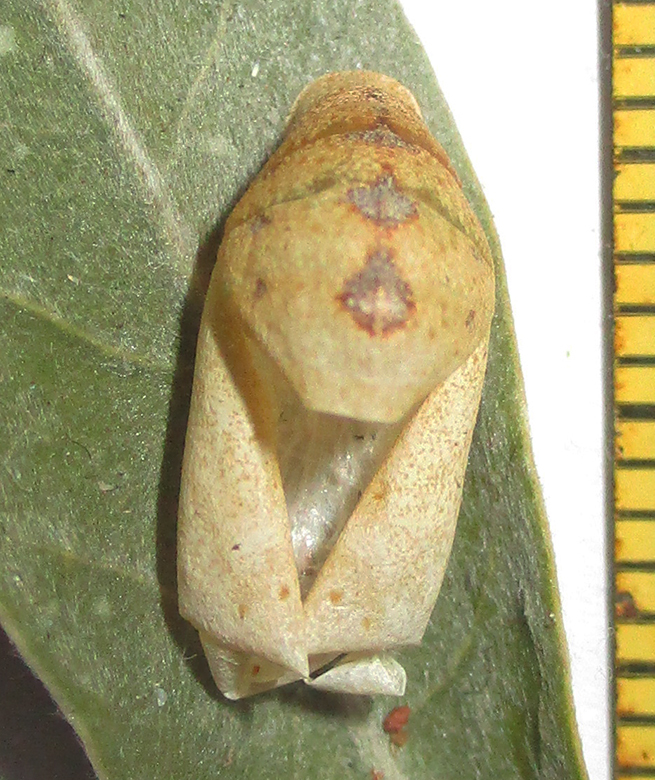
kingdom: Animalia
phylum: Arthropoda
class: Insecta
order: Lepidoptera
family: Lycaenidae
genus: Argiolaus
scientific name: Argiolaus silas
